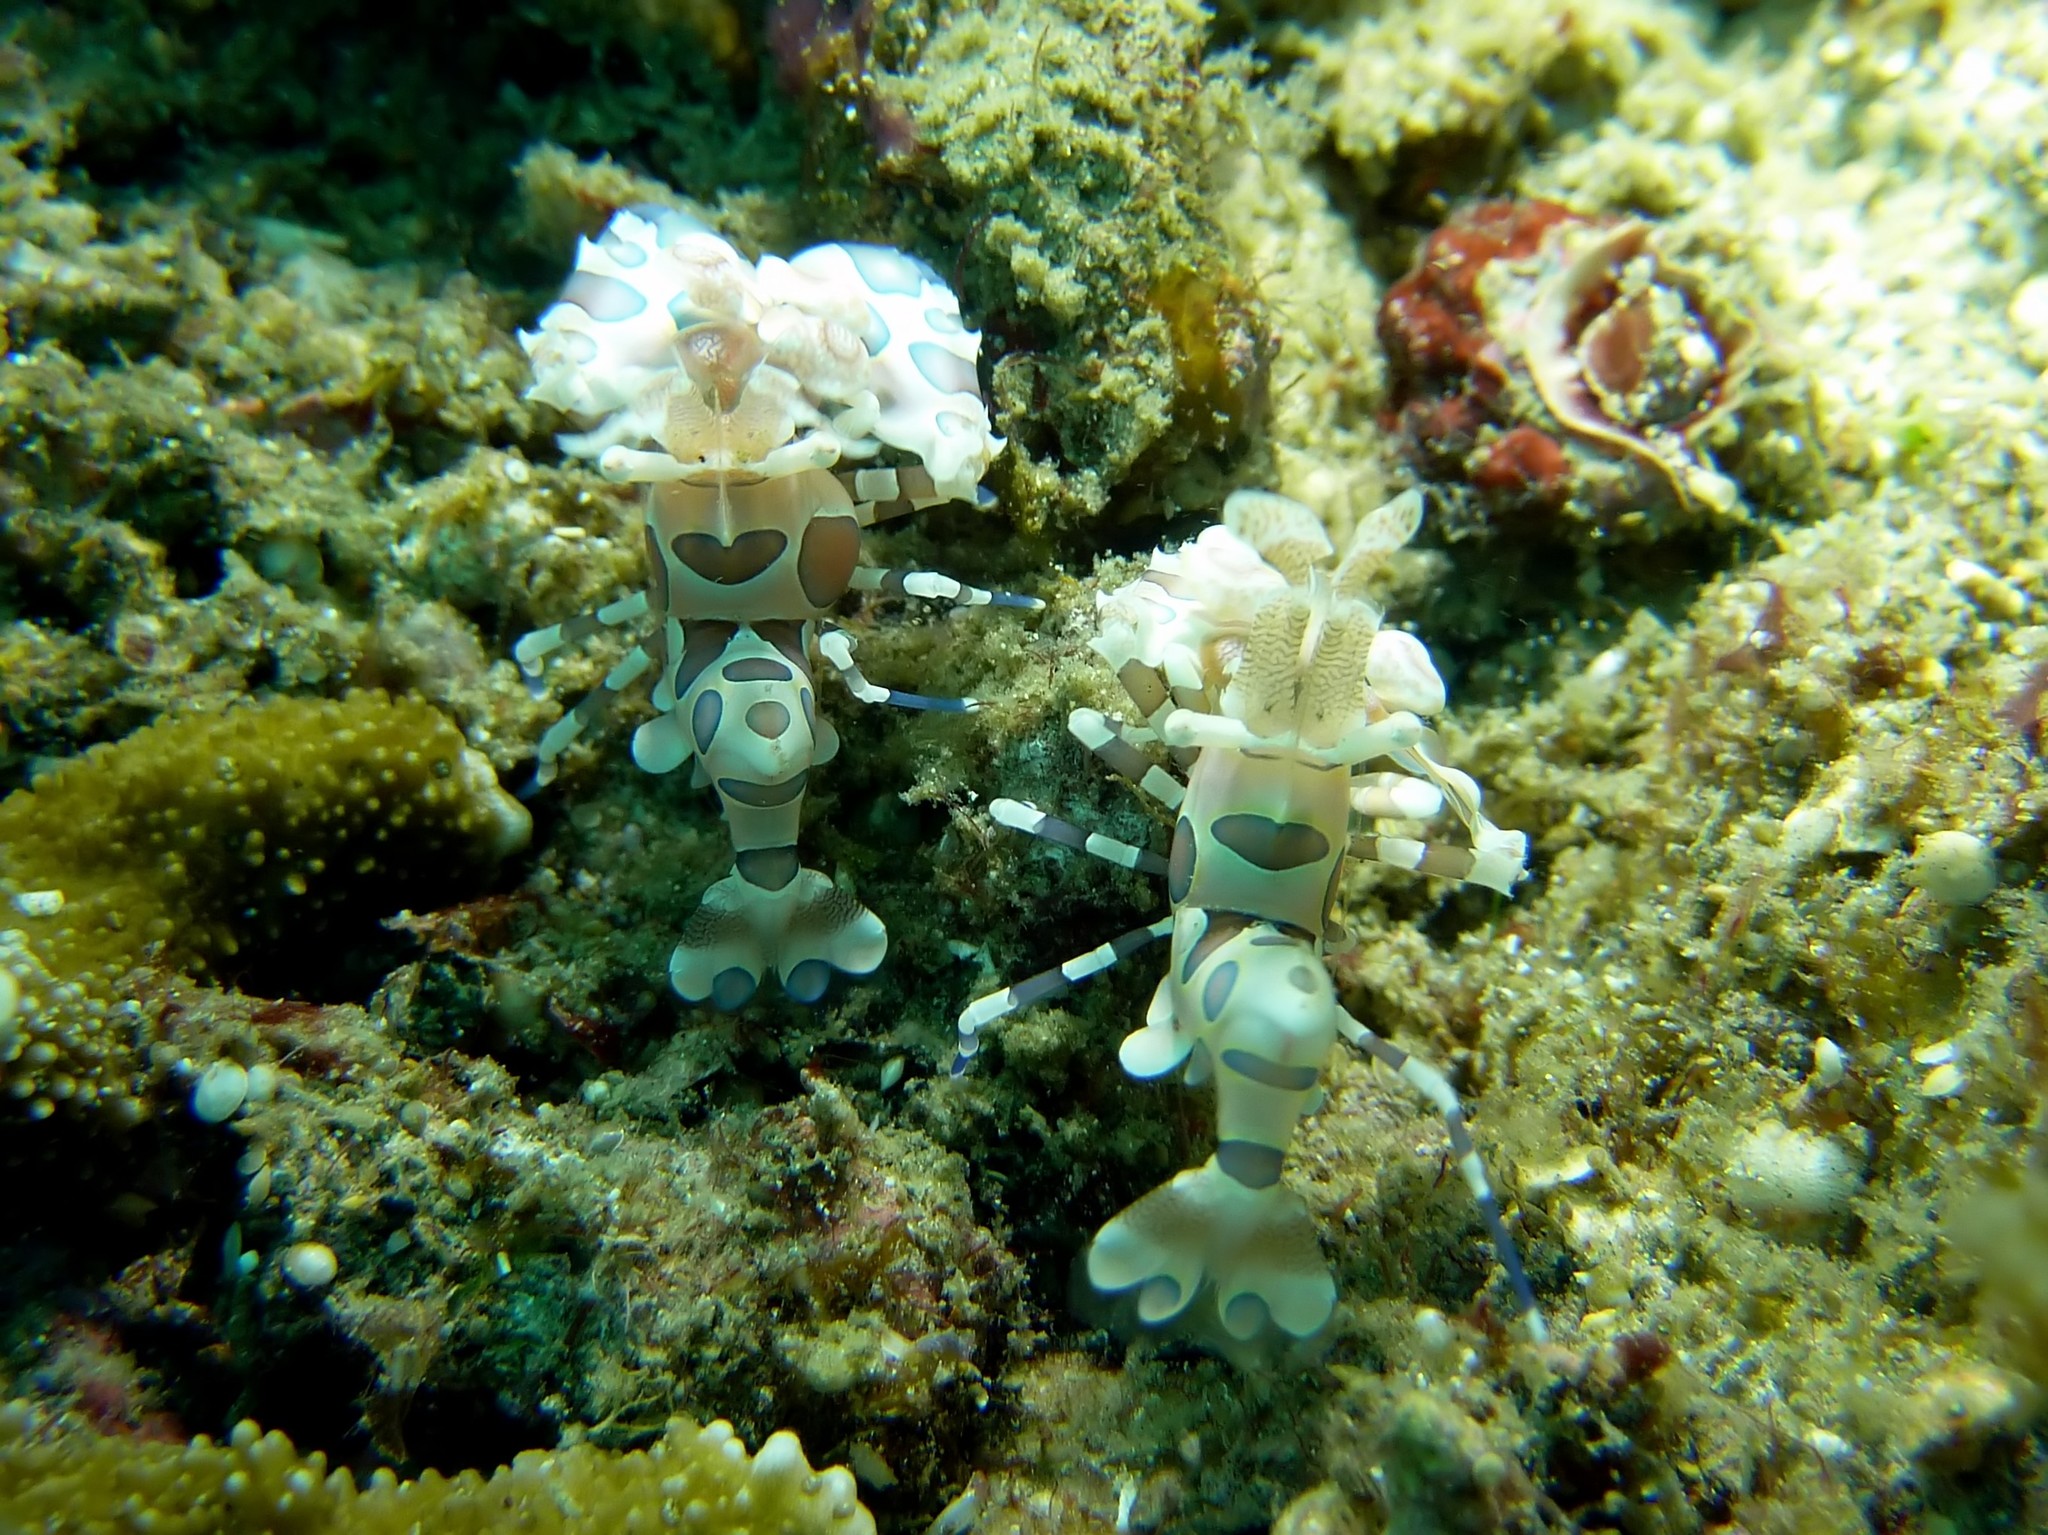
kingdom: Animalia
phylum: Arthropoda
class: Malacostraca
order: Decapoda
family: Palaemonidae
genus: Hymenocera
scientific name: Hymenocera picta
